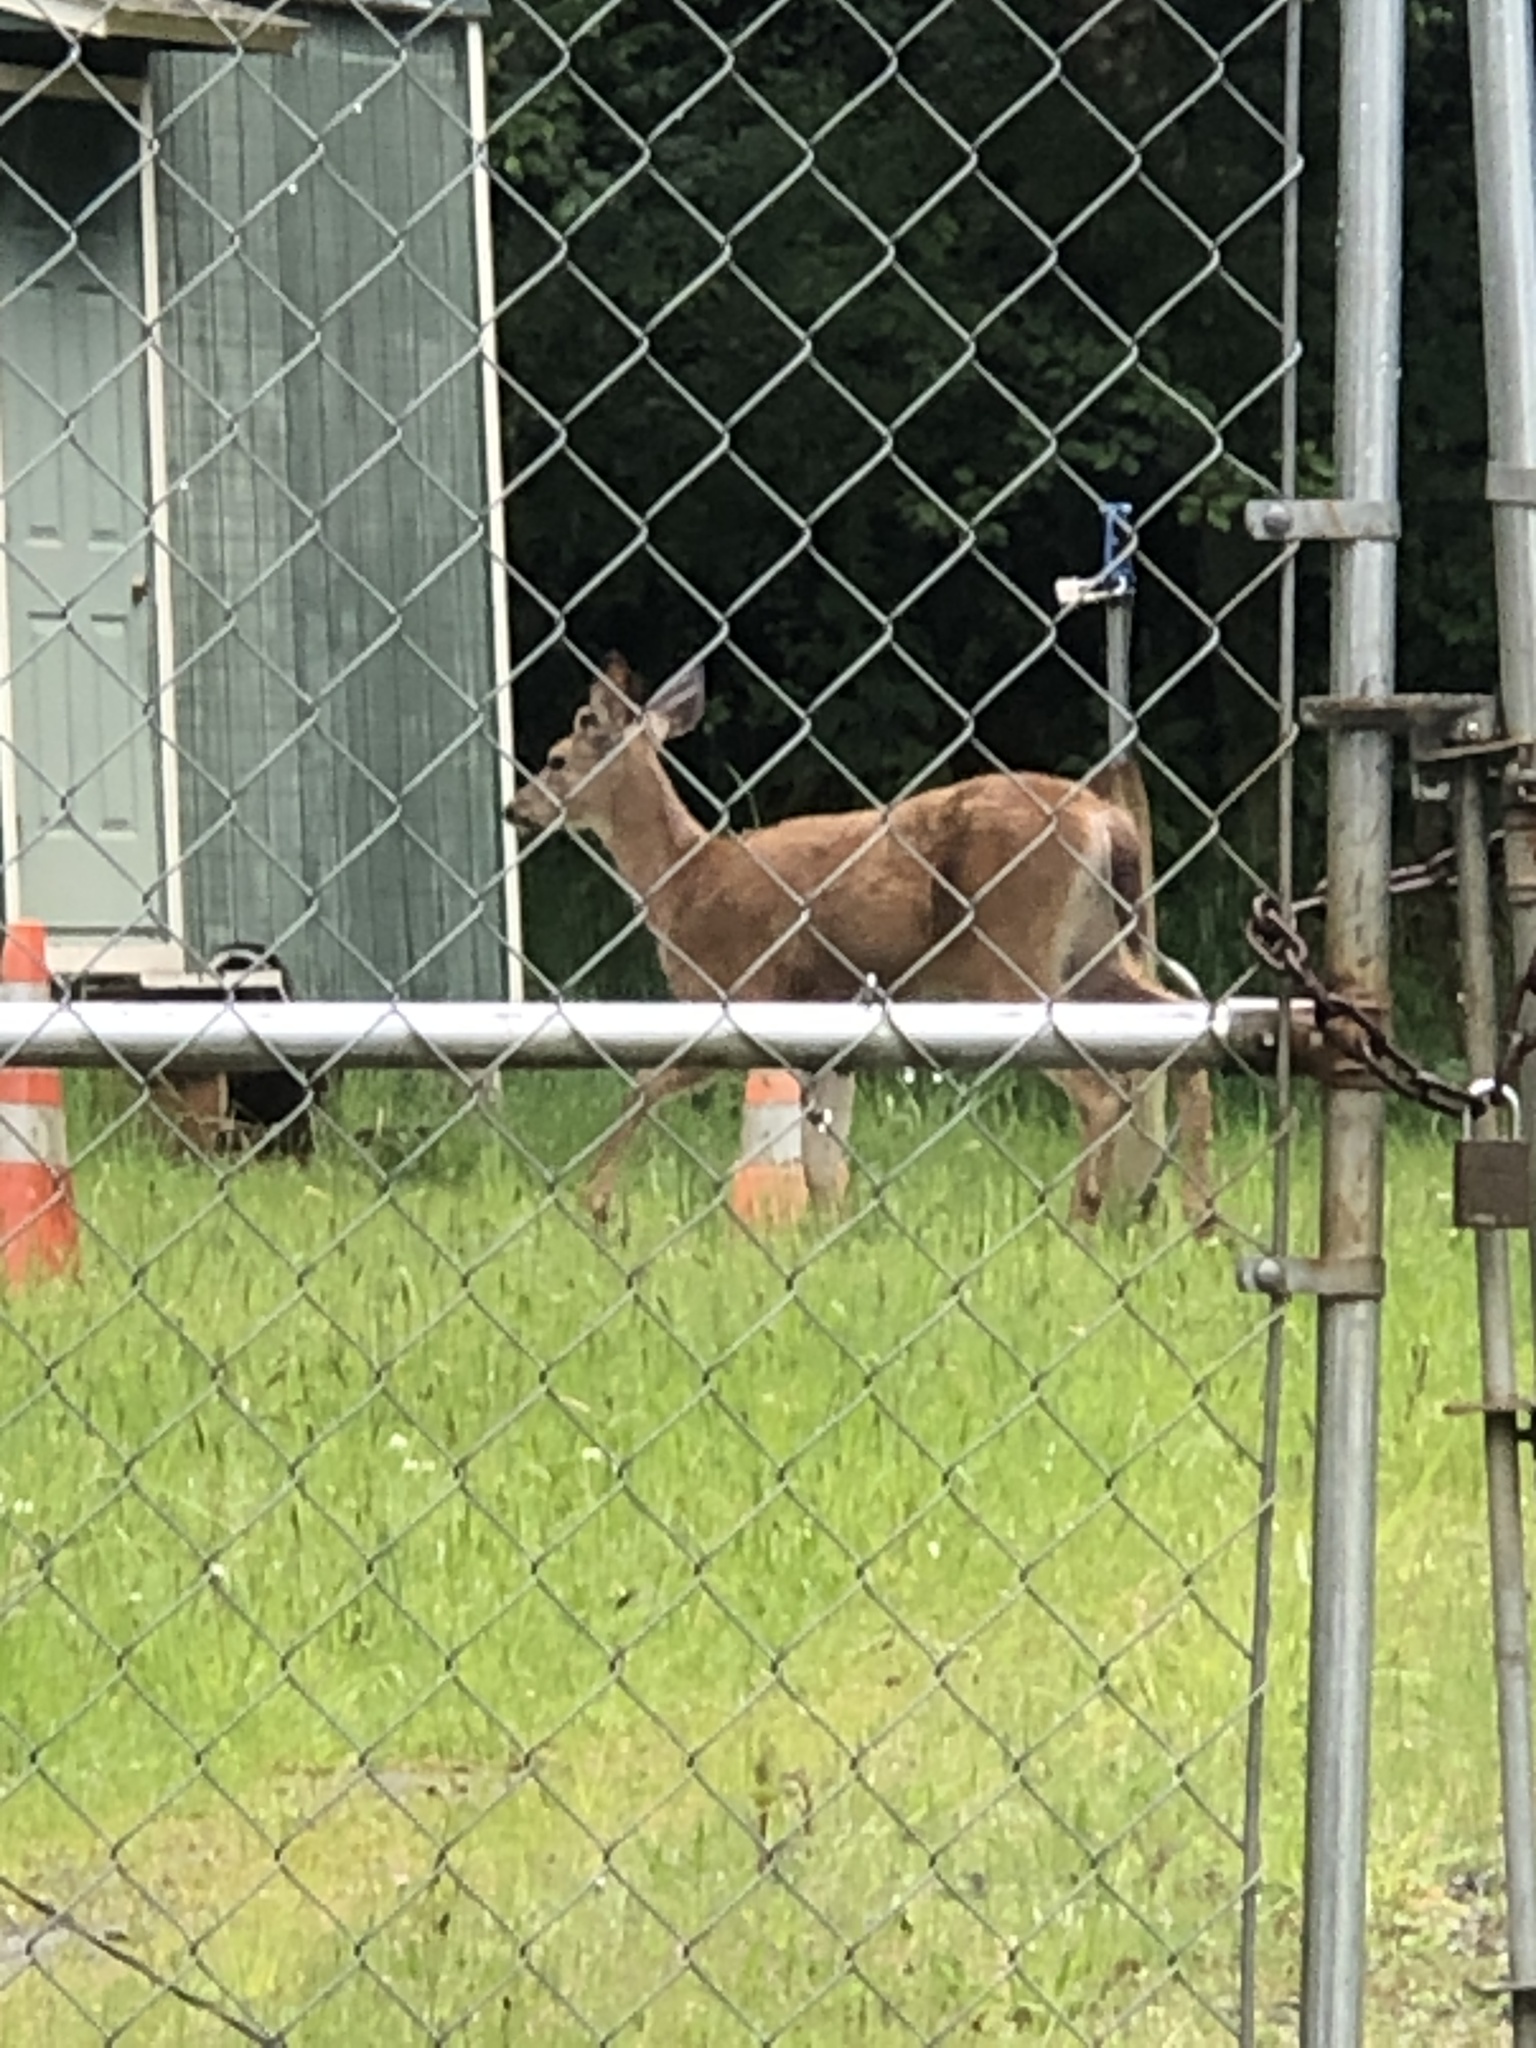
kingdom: Animalia
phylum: Chordata
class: Mammalia
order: Artiodactyla
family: Cervidae
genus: Odocoileus
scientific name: Odocoileus hemionus
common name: Mule deer
